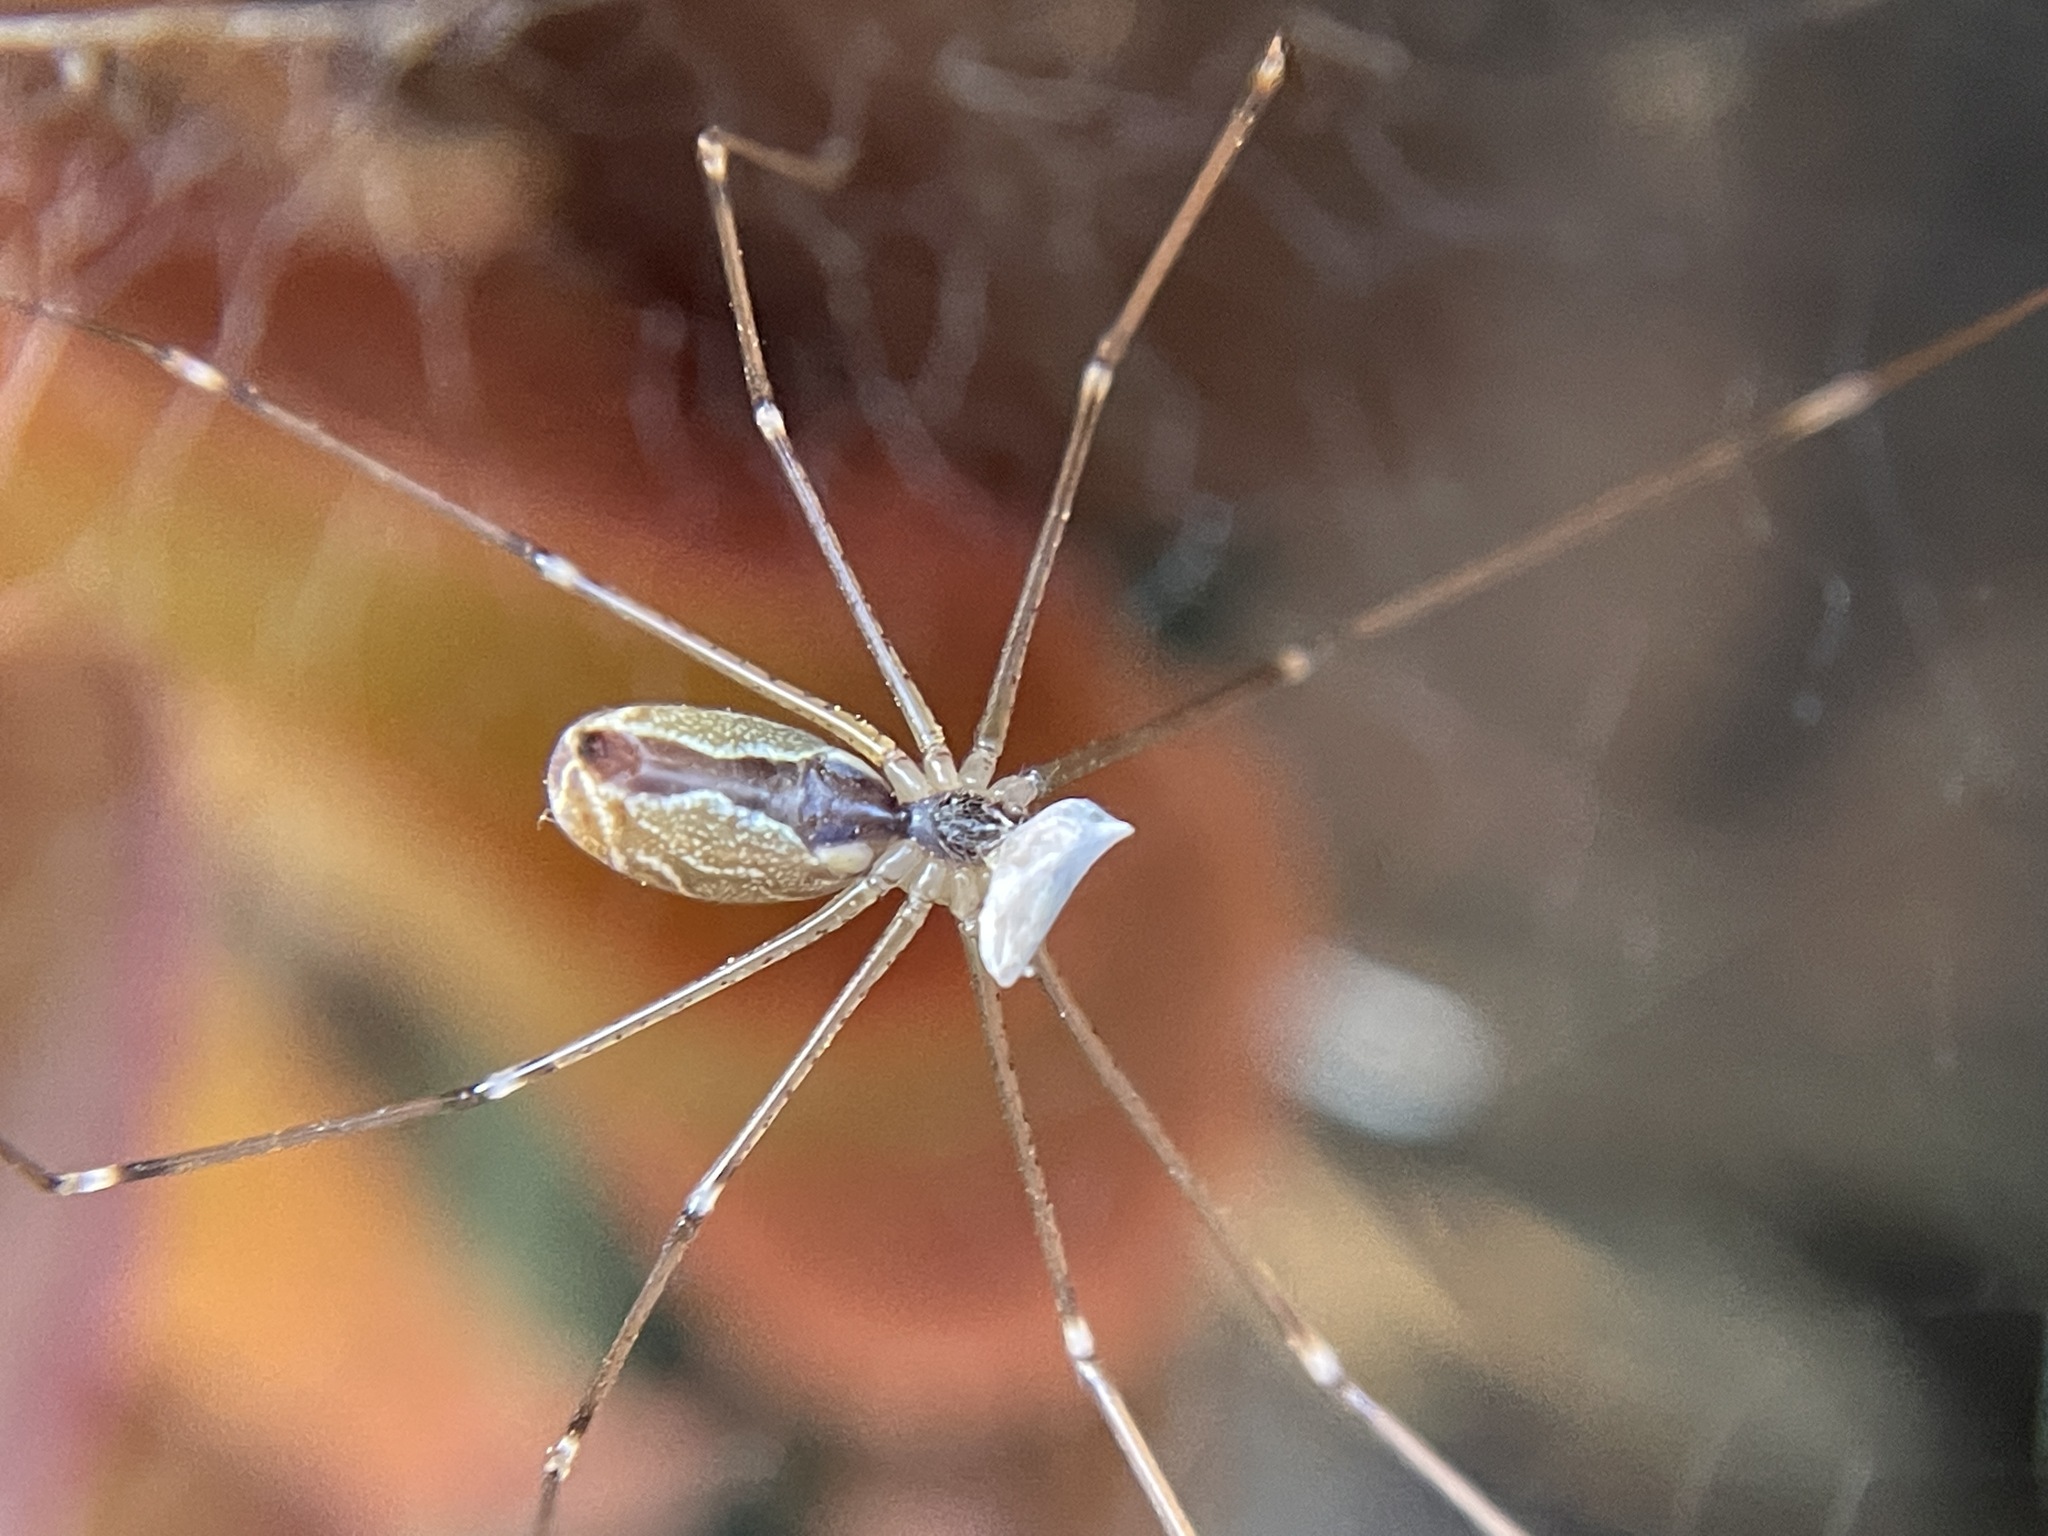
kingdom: Animalia
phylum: Arthropoda
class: Arachnida
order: Araneae
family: Pholcidae
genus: Holocnemus
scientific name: Holocnemus pluchei
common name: Marbled cellar spider
